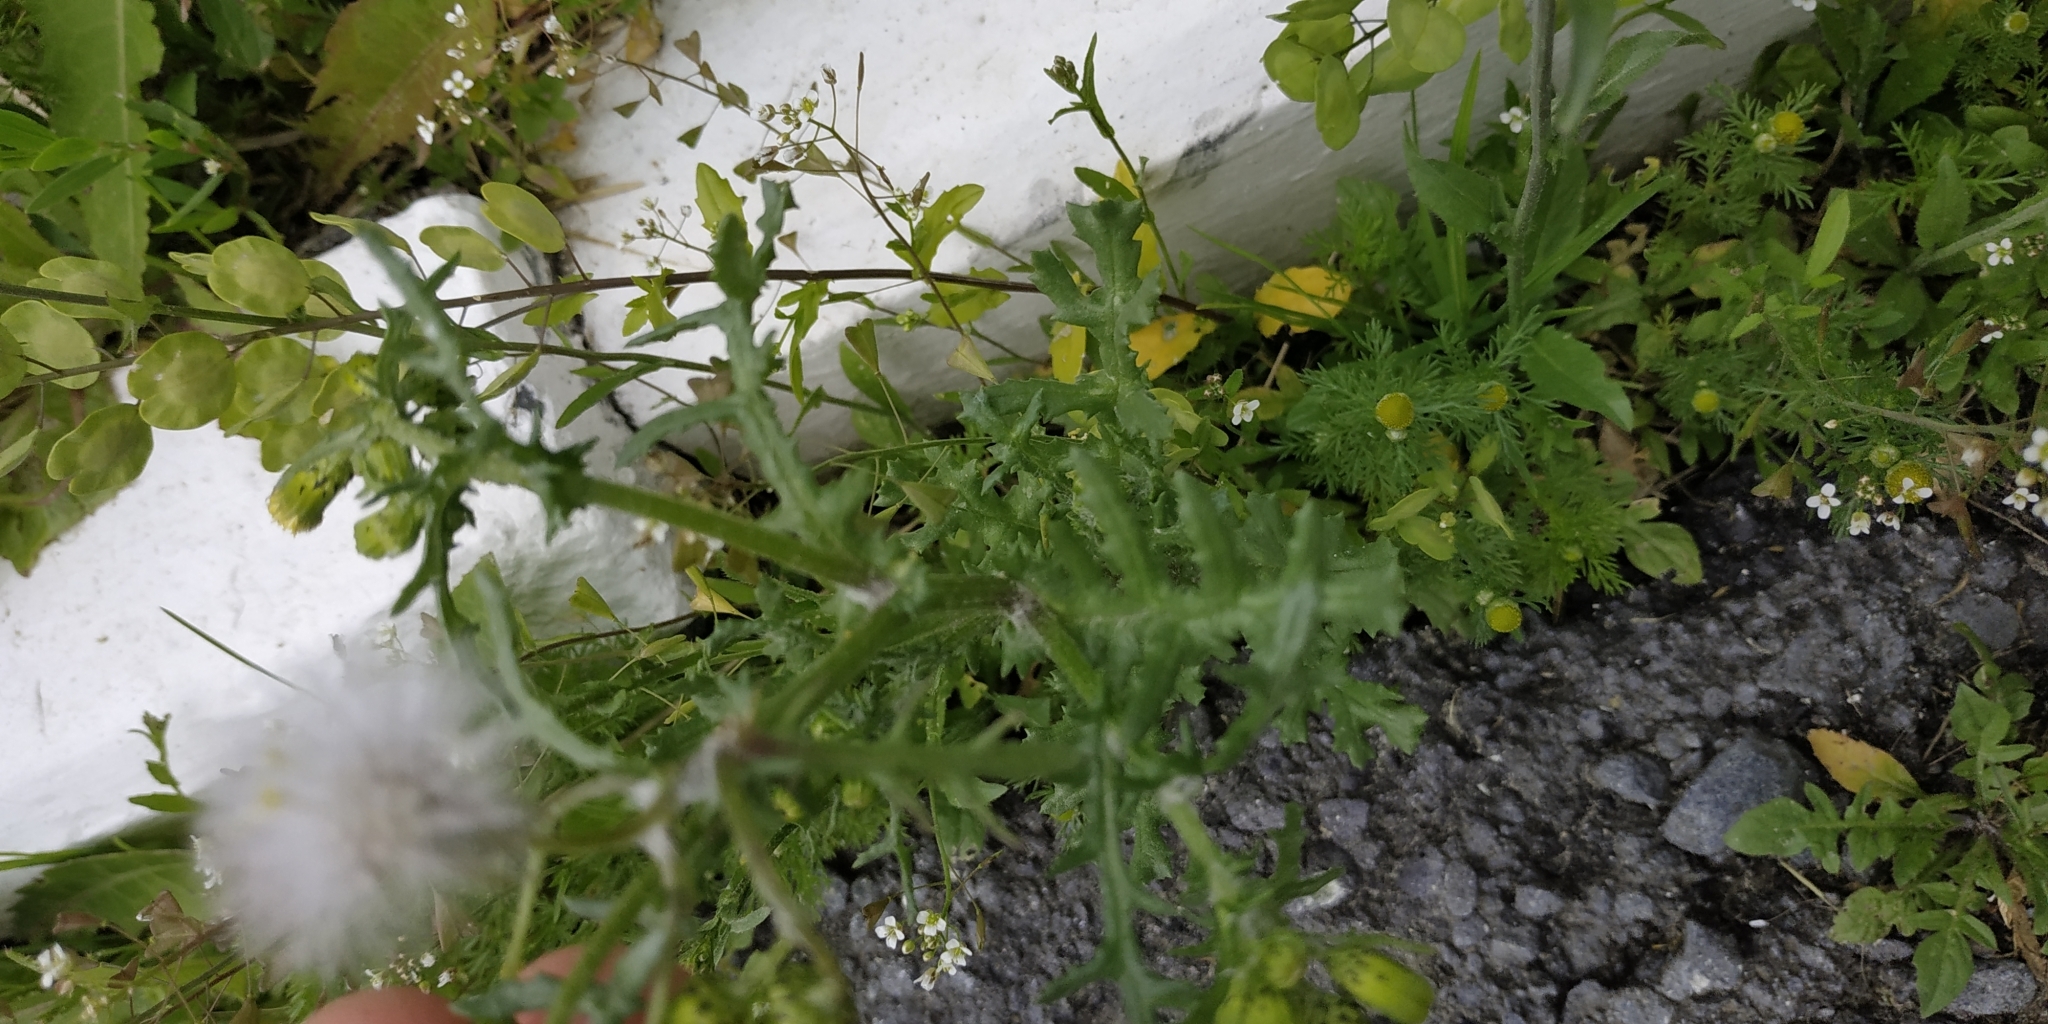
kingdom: Plantae
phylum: Tracheophyta
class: Magnoliopsida
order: Asterales
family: Asteraceae
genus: Senecio
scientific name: Senecio vulgaris
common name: Old-man-in-the-spring
